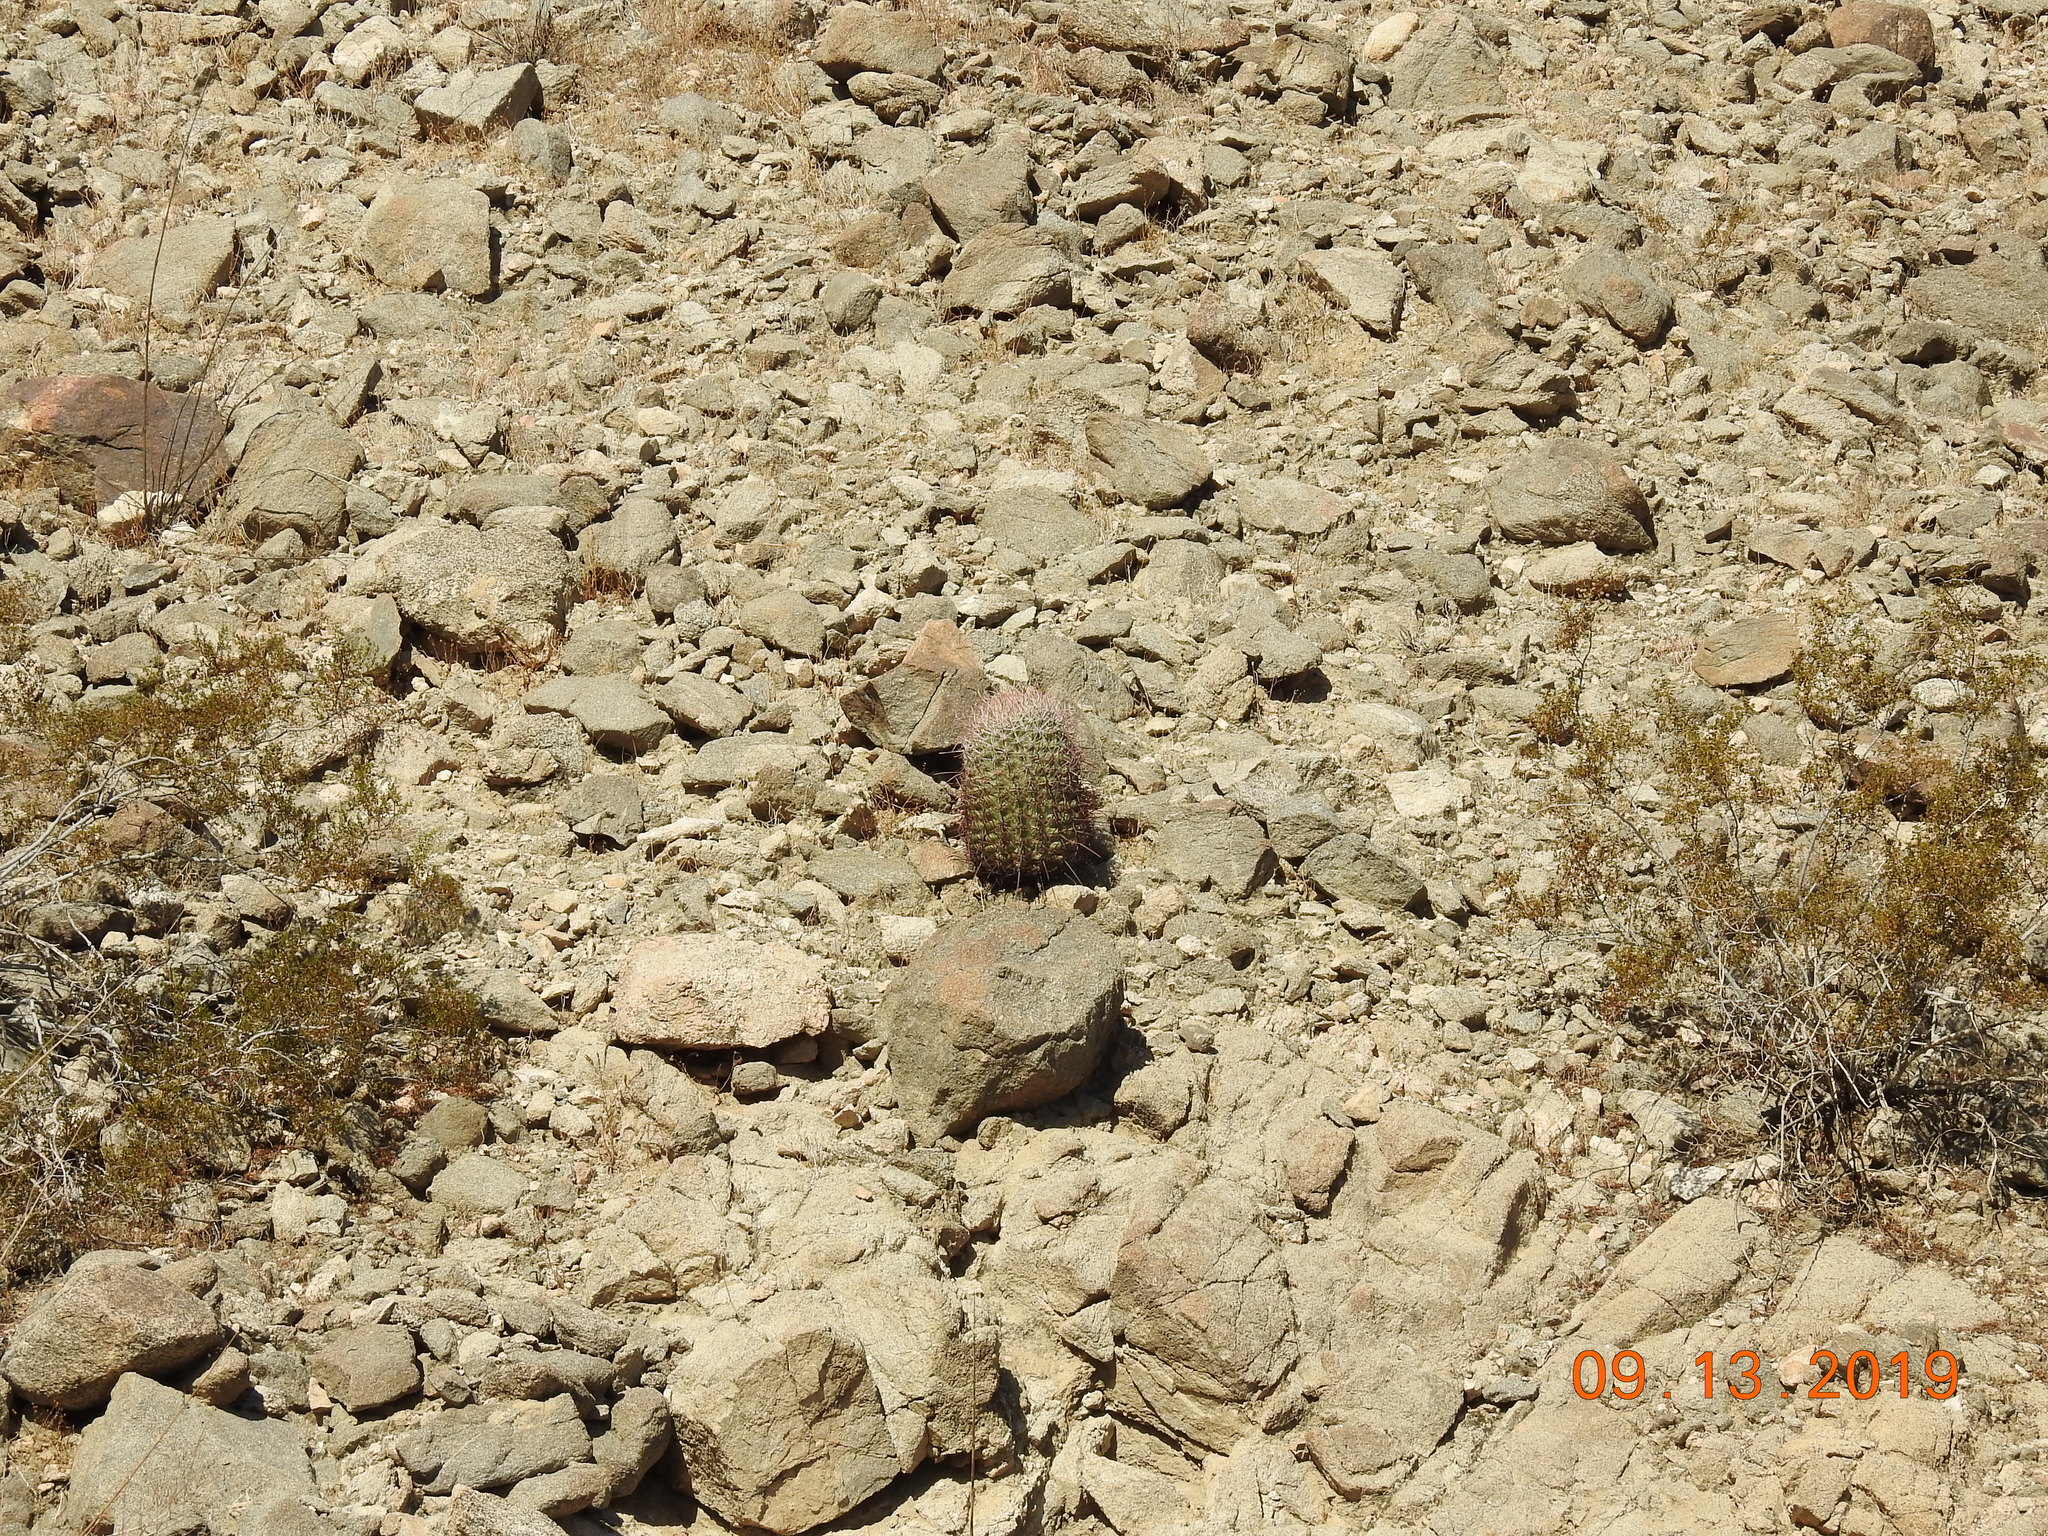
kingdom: Plantae
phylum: Tracheophyta
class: Magnoliopsida
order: Caryophyllales
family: Cactaceae
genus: Ferocactus
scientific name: Ferocactus cylindraceus
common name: California barrel cactus
